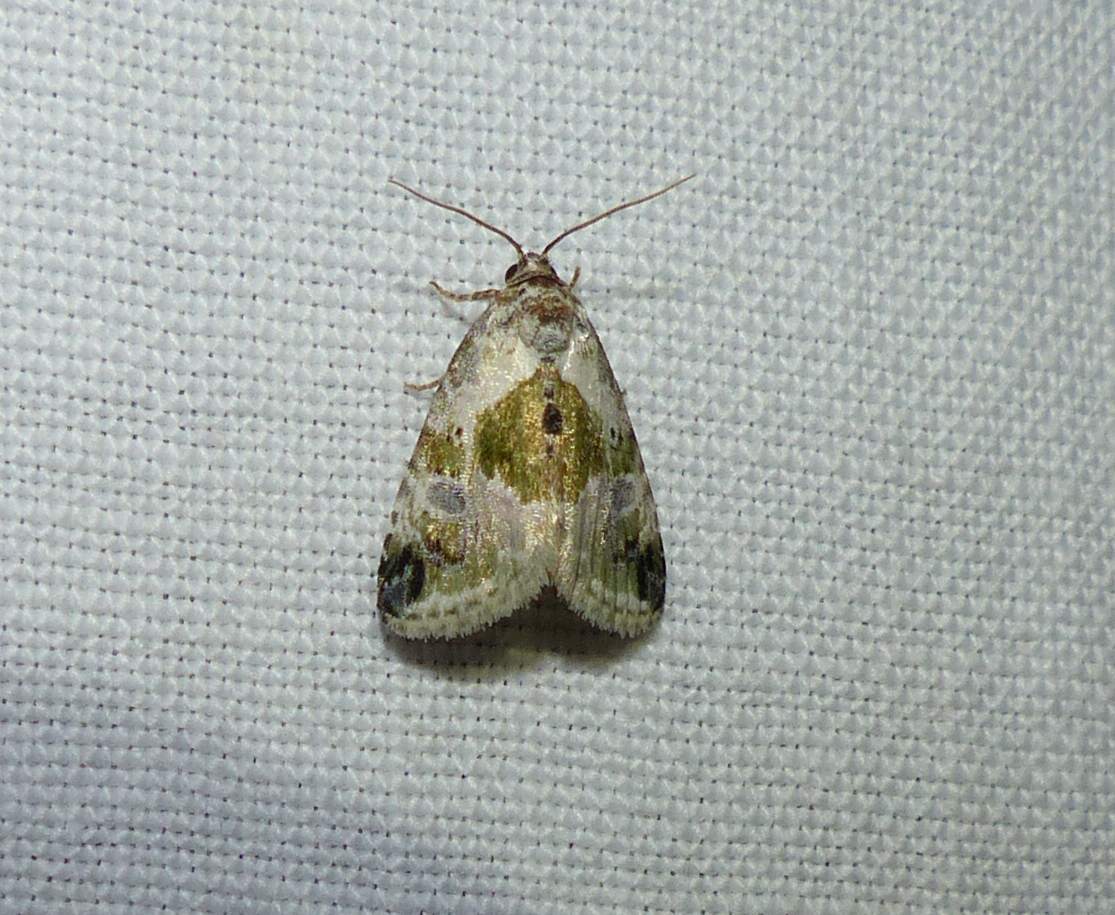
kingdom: Animalia
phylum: Arthropoda
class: Insecta
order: Lepidoptera
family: Noctuidae
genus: Maliattha
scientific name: Maliattha synochitis
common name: Black-dotted glyph
